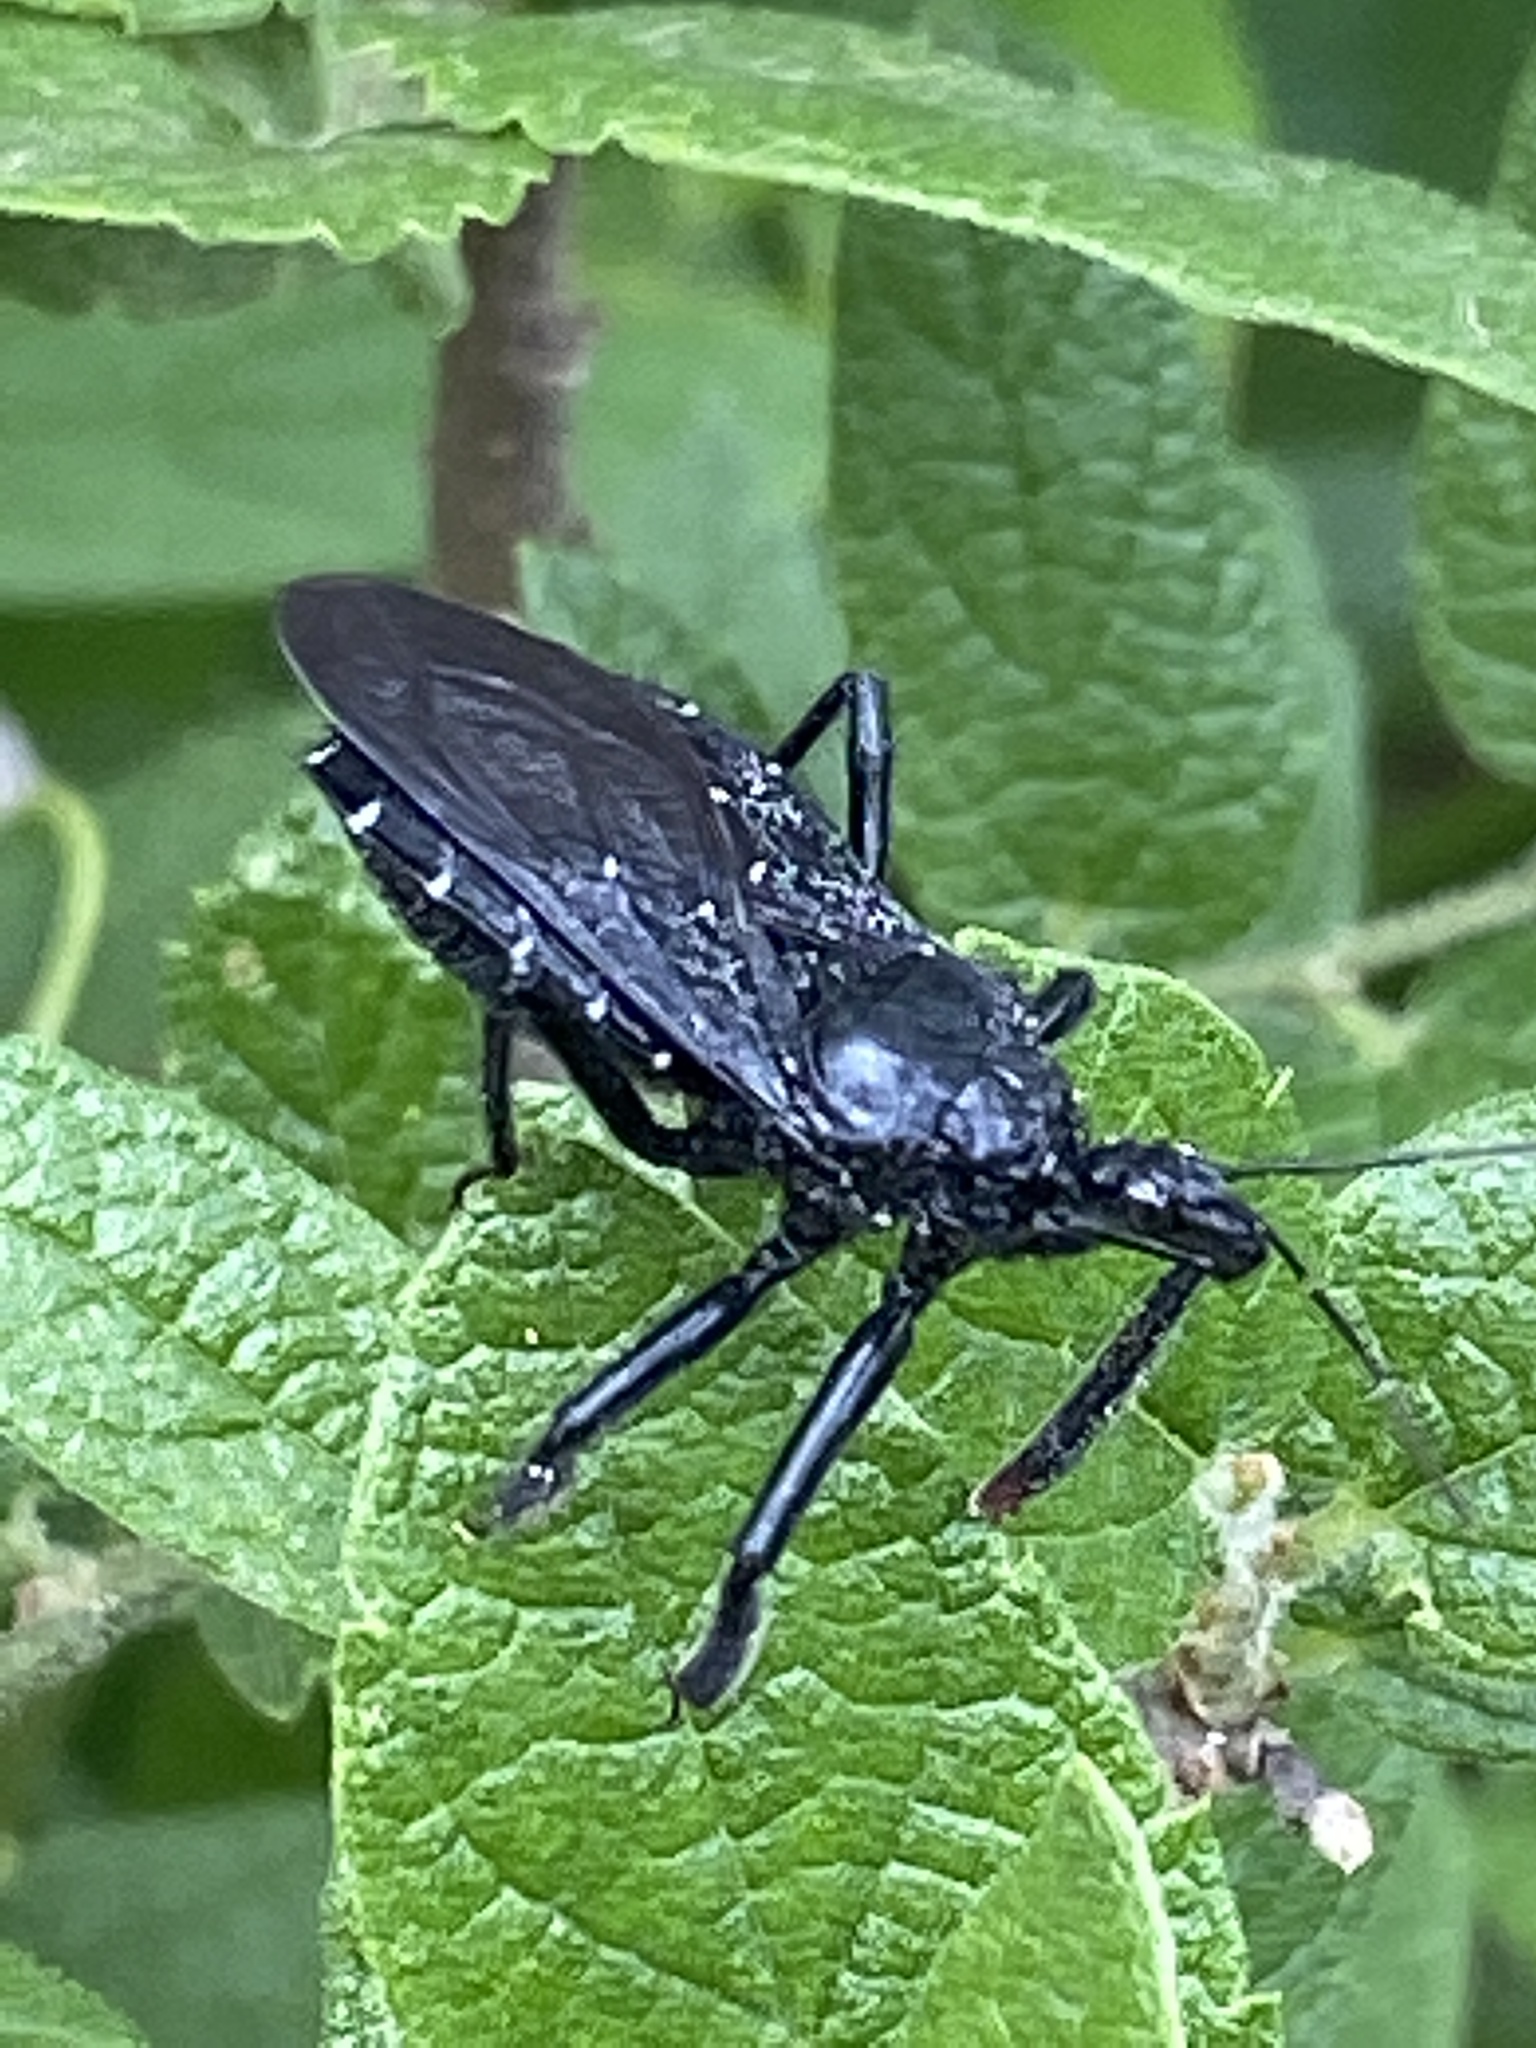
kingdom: Animalia
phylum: Arthropoda
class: Insecta
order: Hemiptera
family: Reduviidae
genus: Apiomerus
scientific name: Apiomerus longispinis
